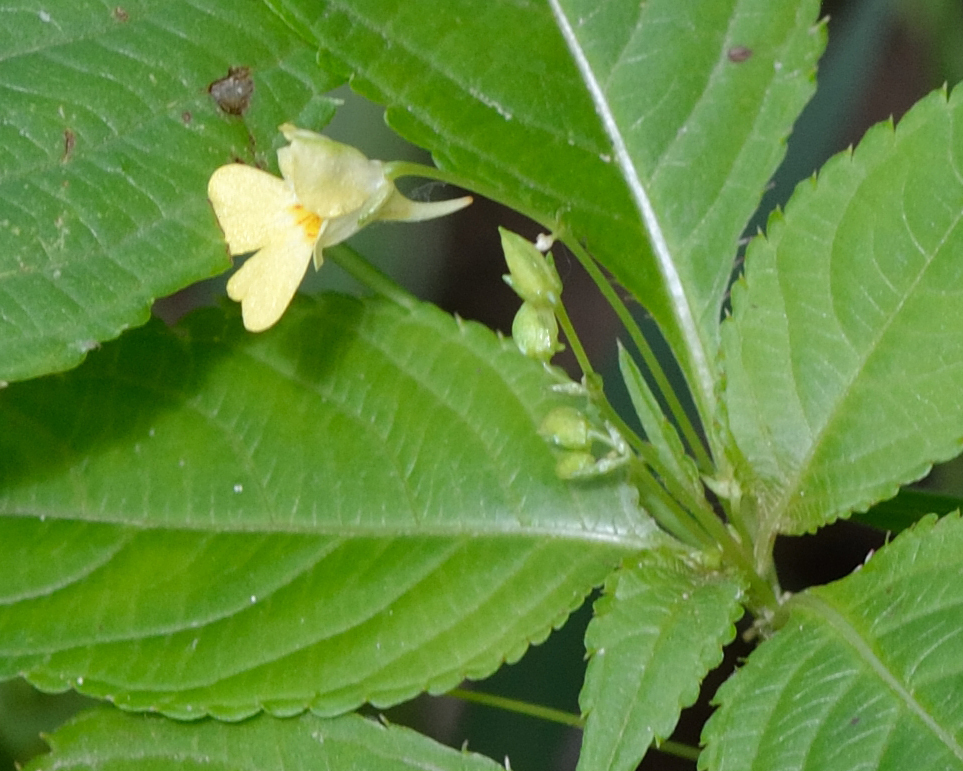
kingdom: Plantae
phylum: Tracheophyta
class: Magnoliopsida
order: Ericales
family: Balsaminaceae
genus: Impatiens
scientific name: Impatiens parviflora
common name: Small balsam
